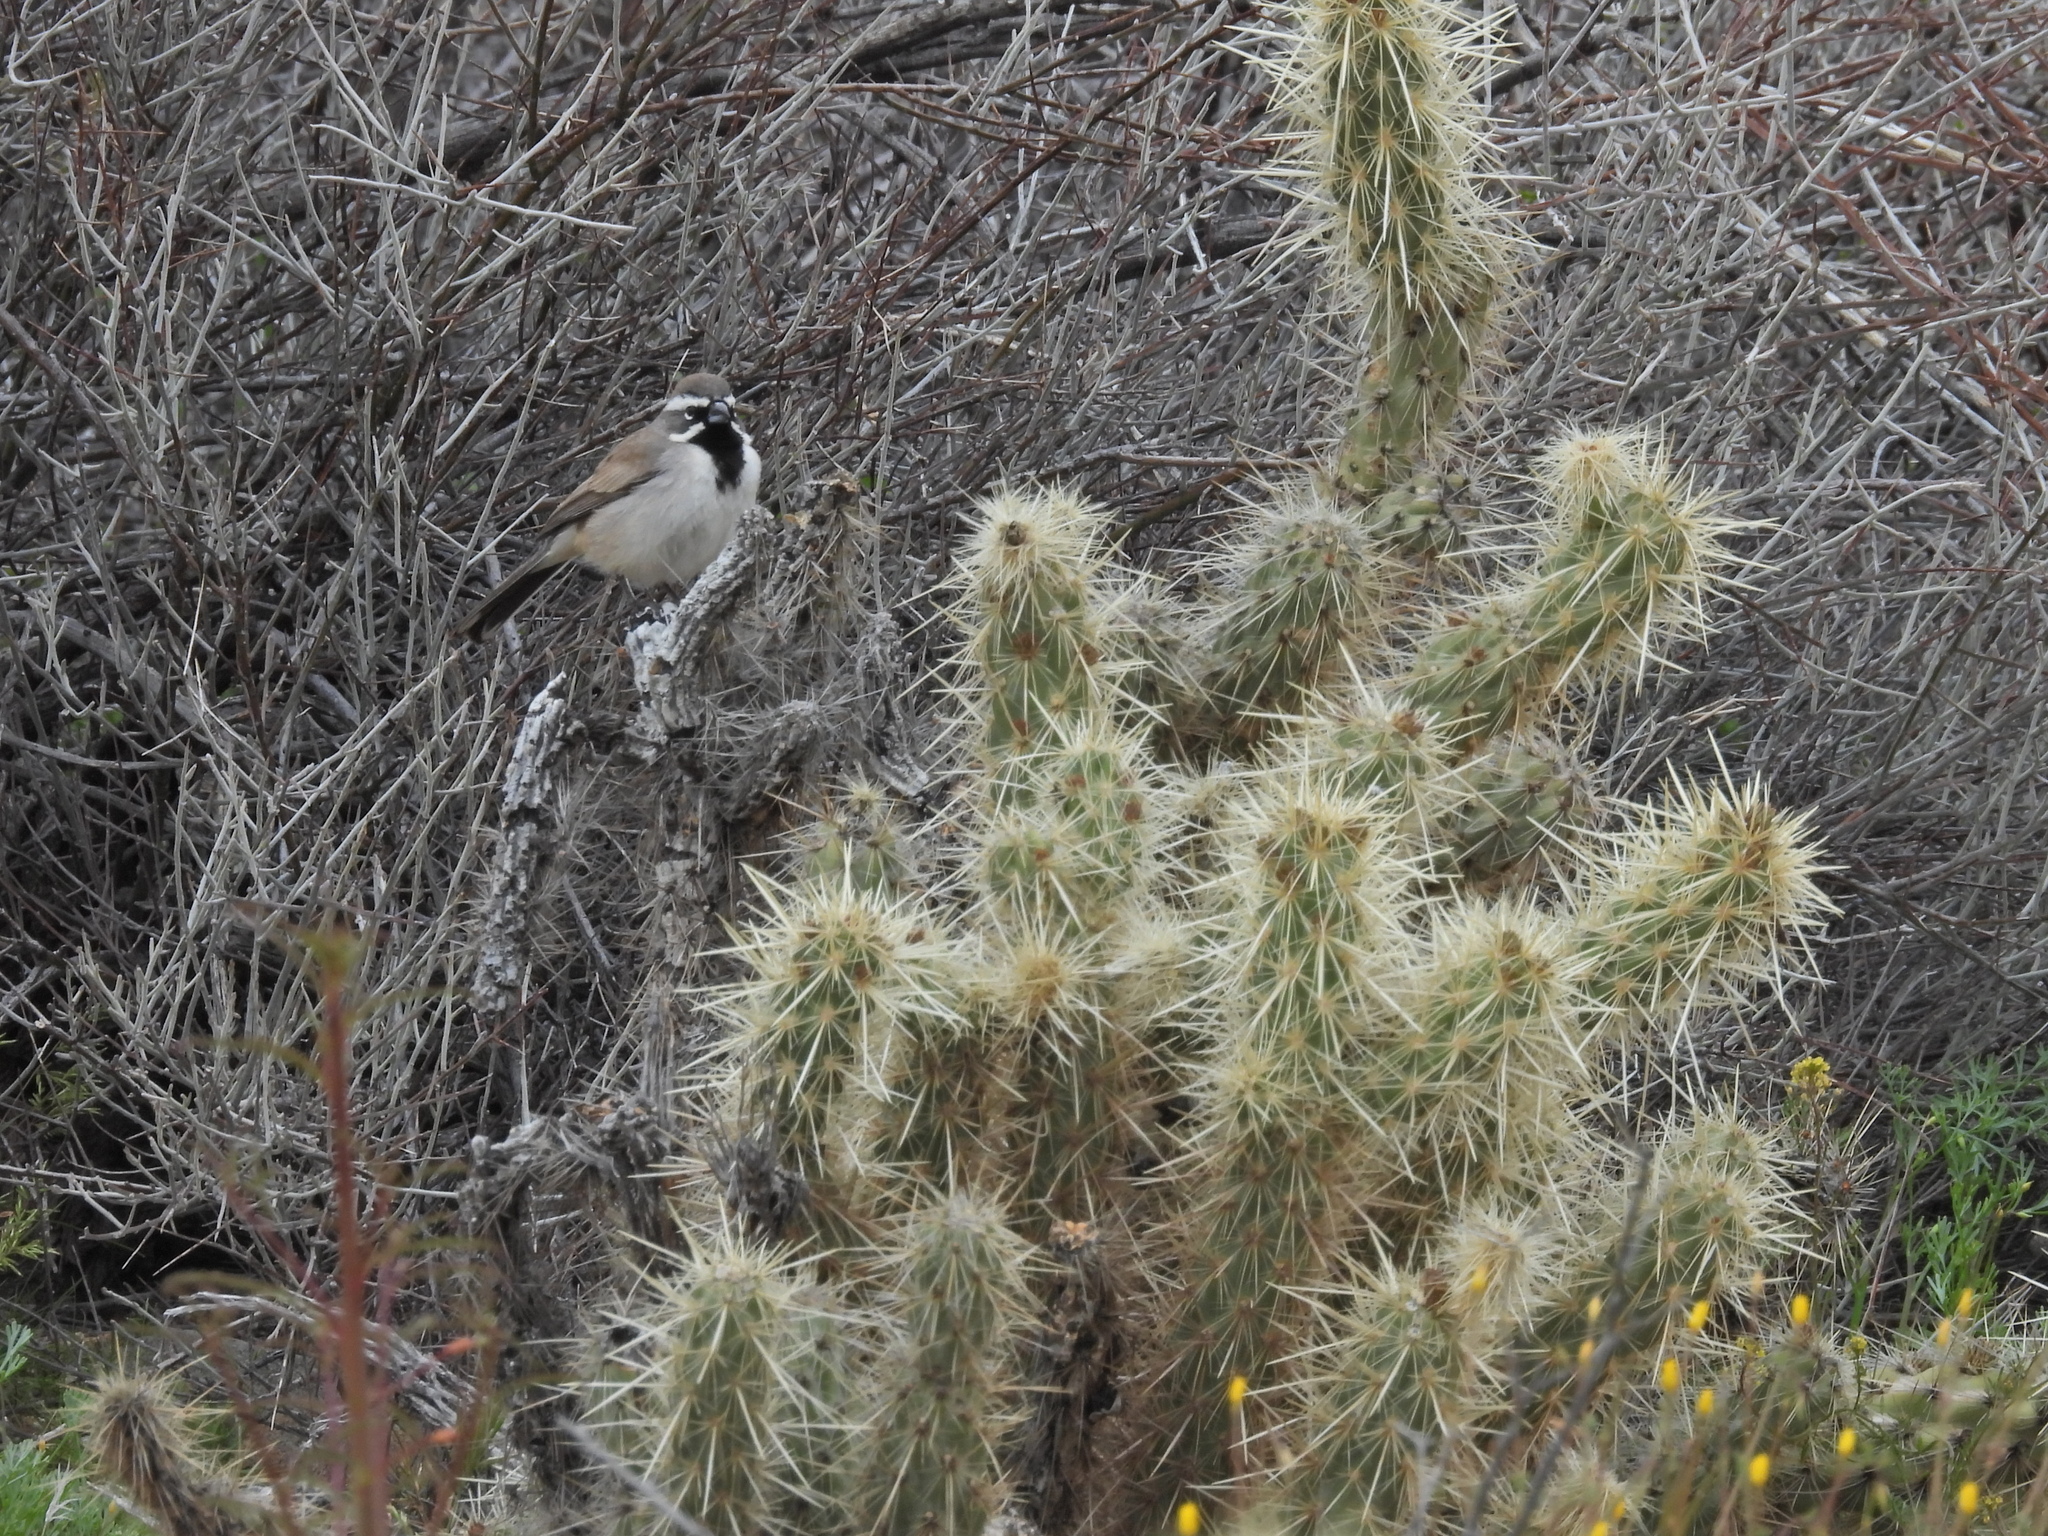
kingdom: Animalia
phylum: Chordata
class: Aves
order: Passeriformes
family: Passerellidae
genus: Amphispiza
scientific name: Amphispiza bilineata
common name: Black-throated sparrow
